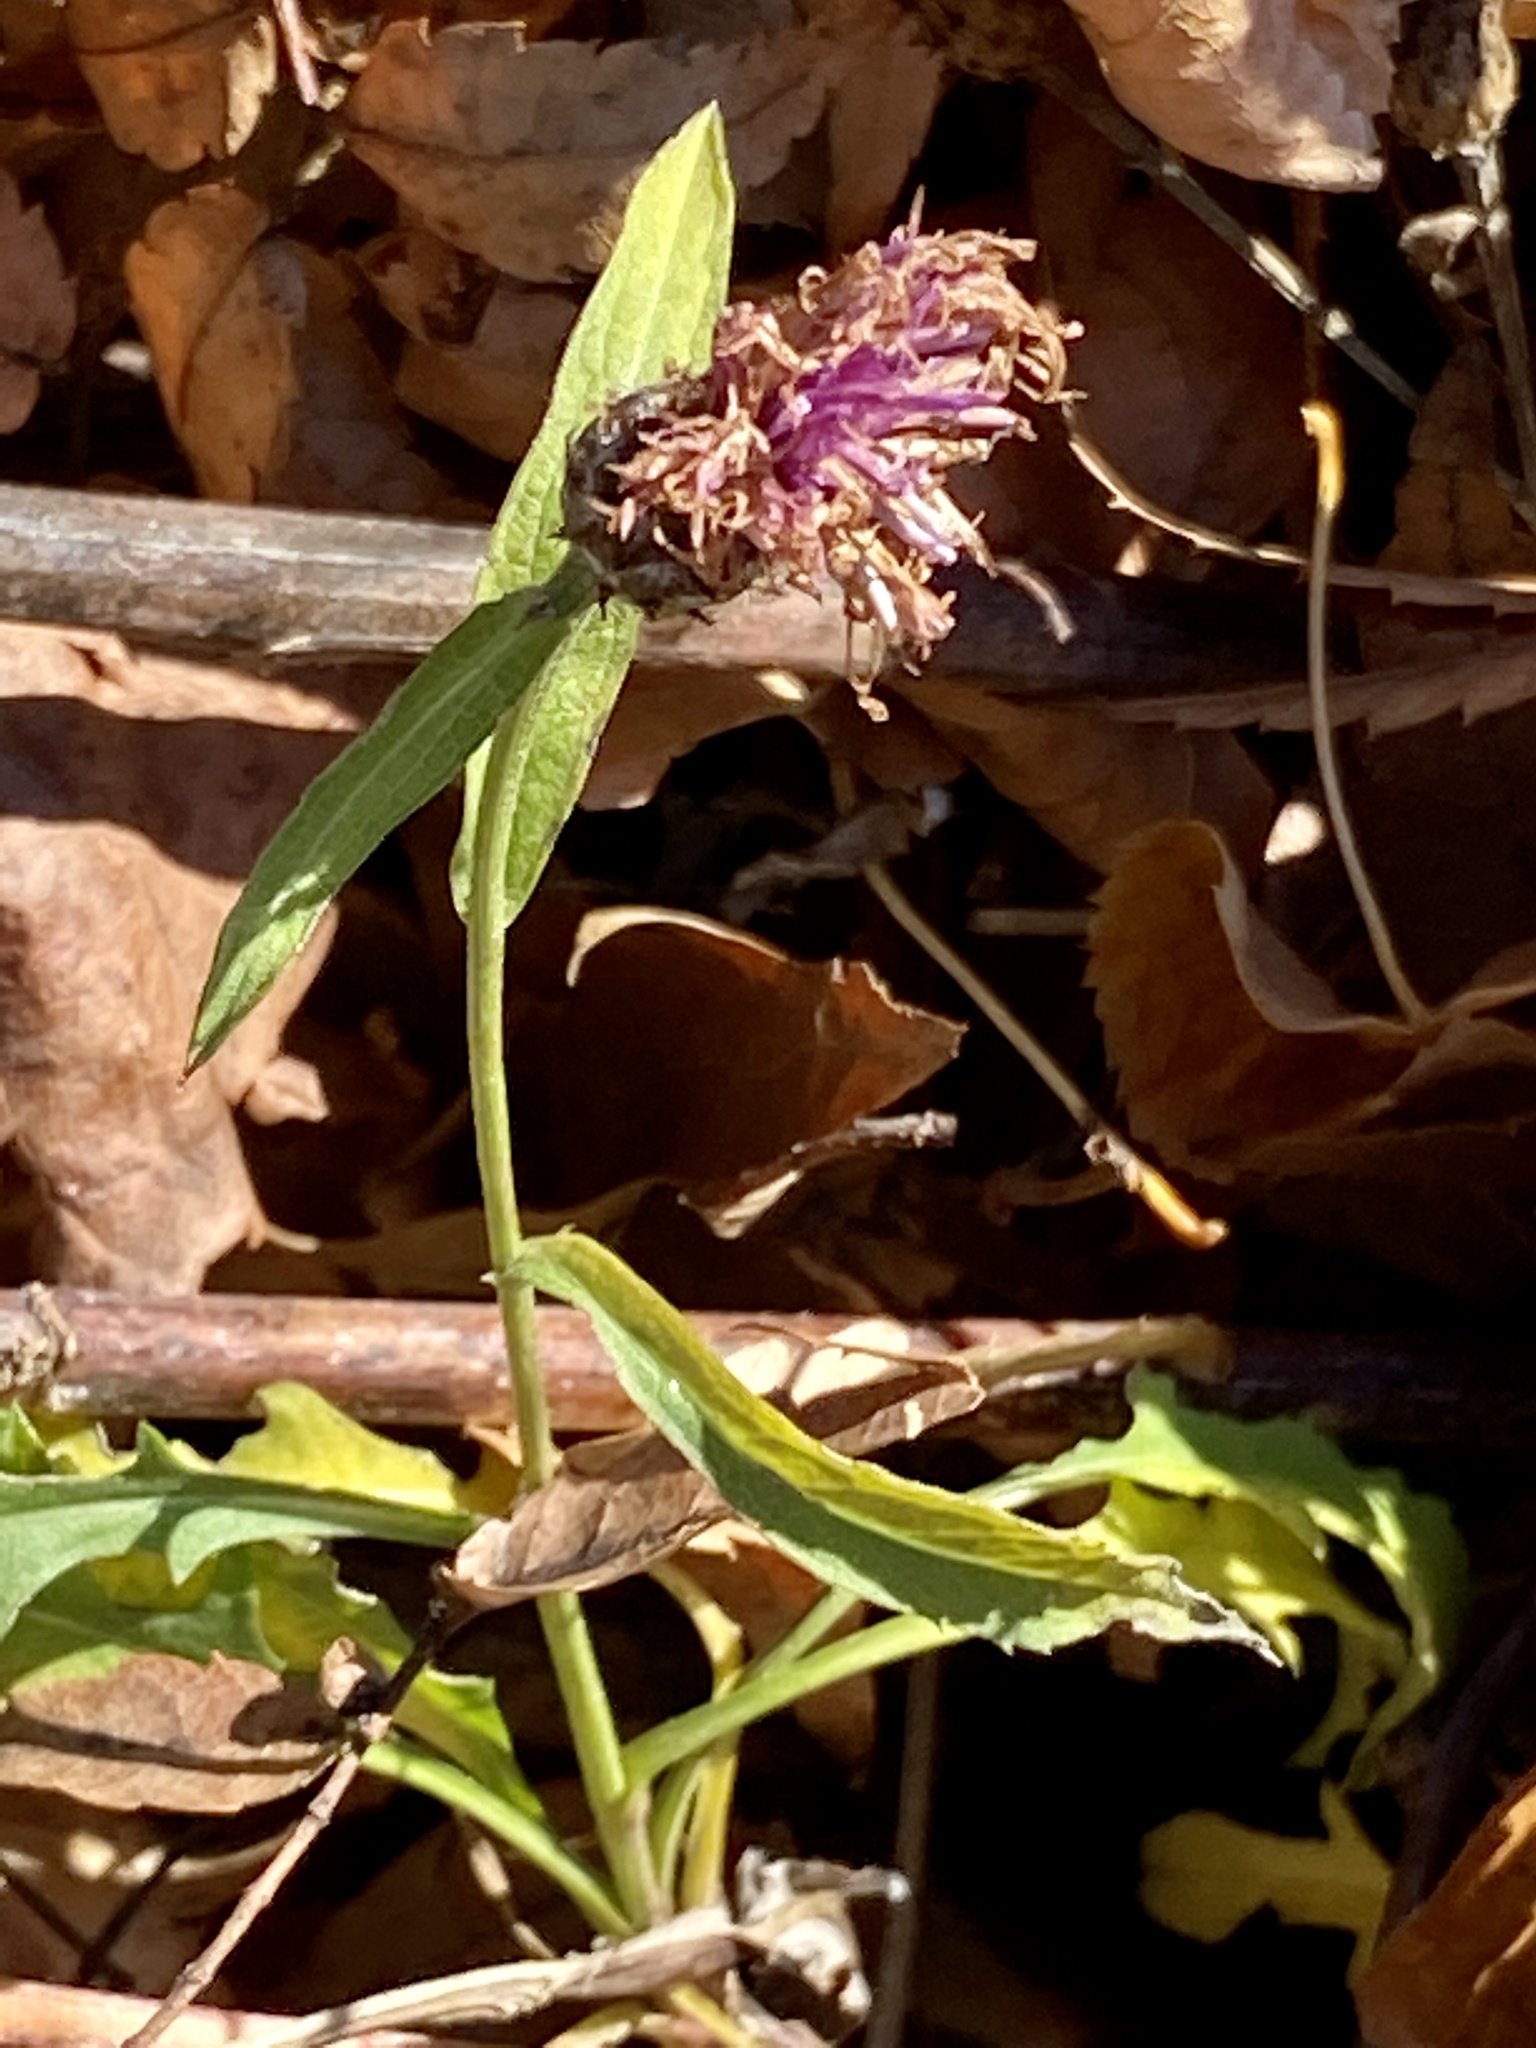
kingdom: Plantae
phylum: Tracheophyta
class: Magnoliopsida
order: Asterales
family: Asteraceae
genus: Centaurea
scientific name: Centaurea nigrescens
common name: Tyrol knapweed
